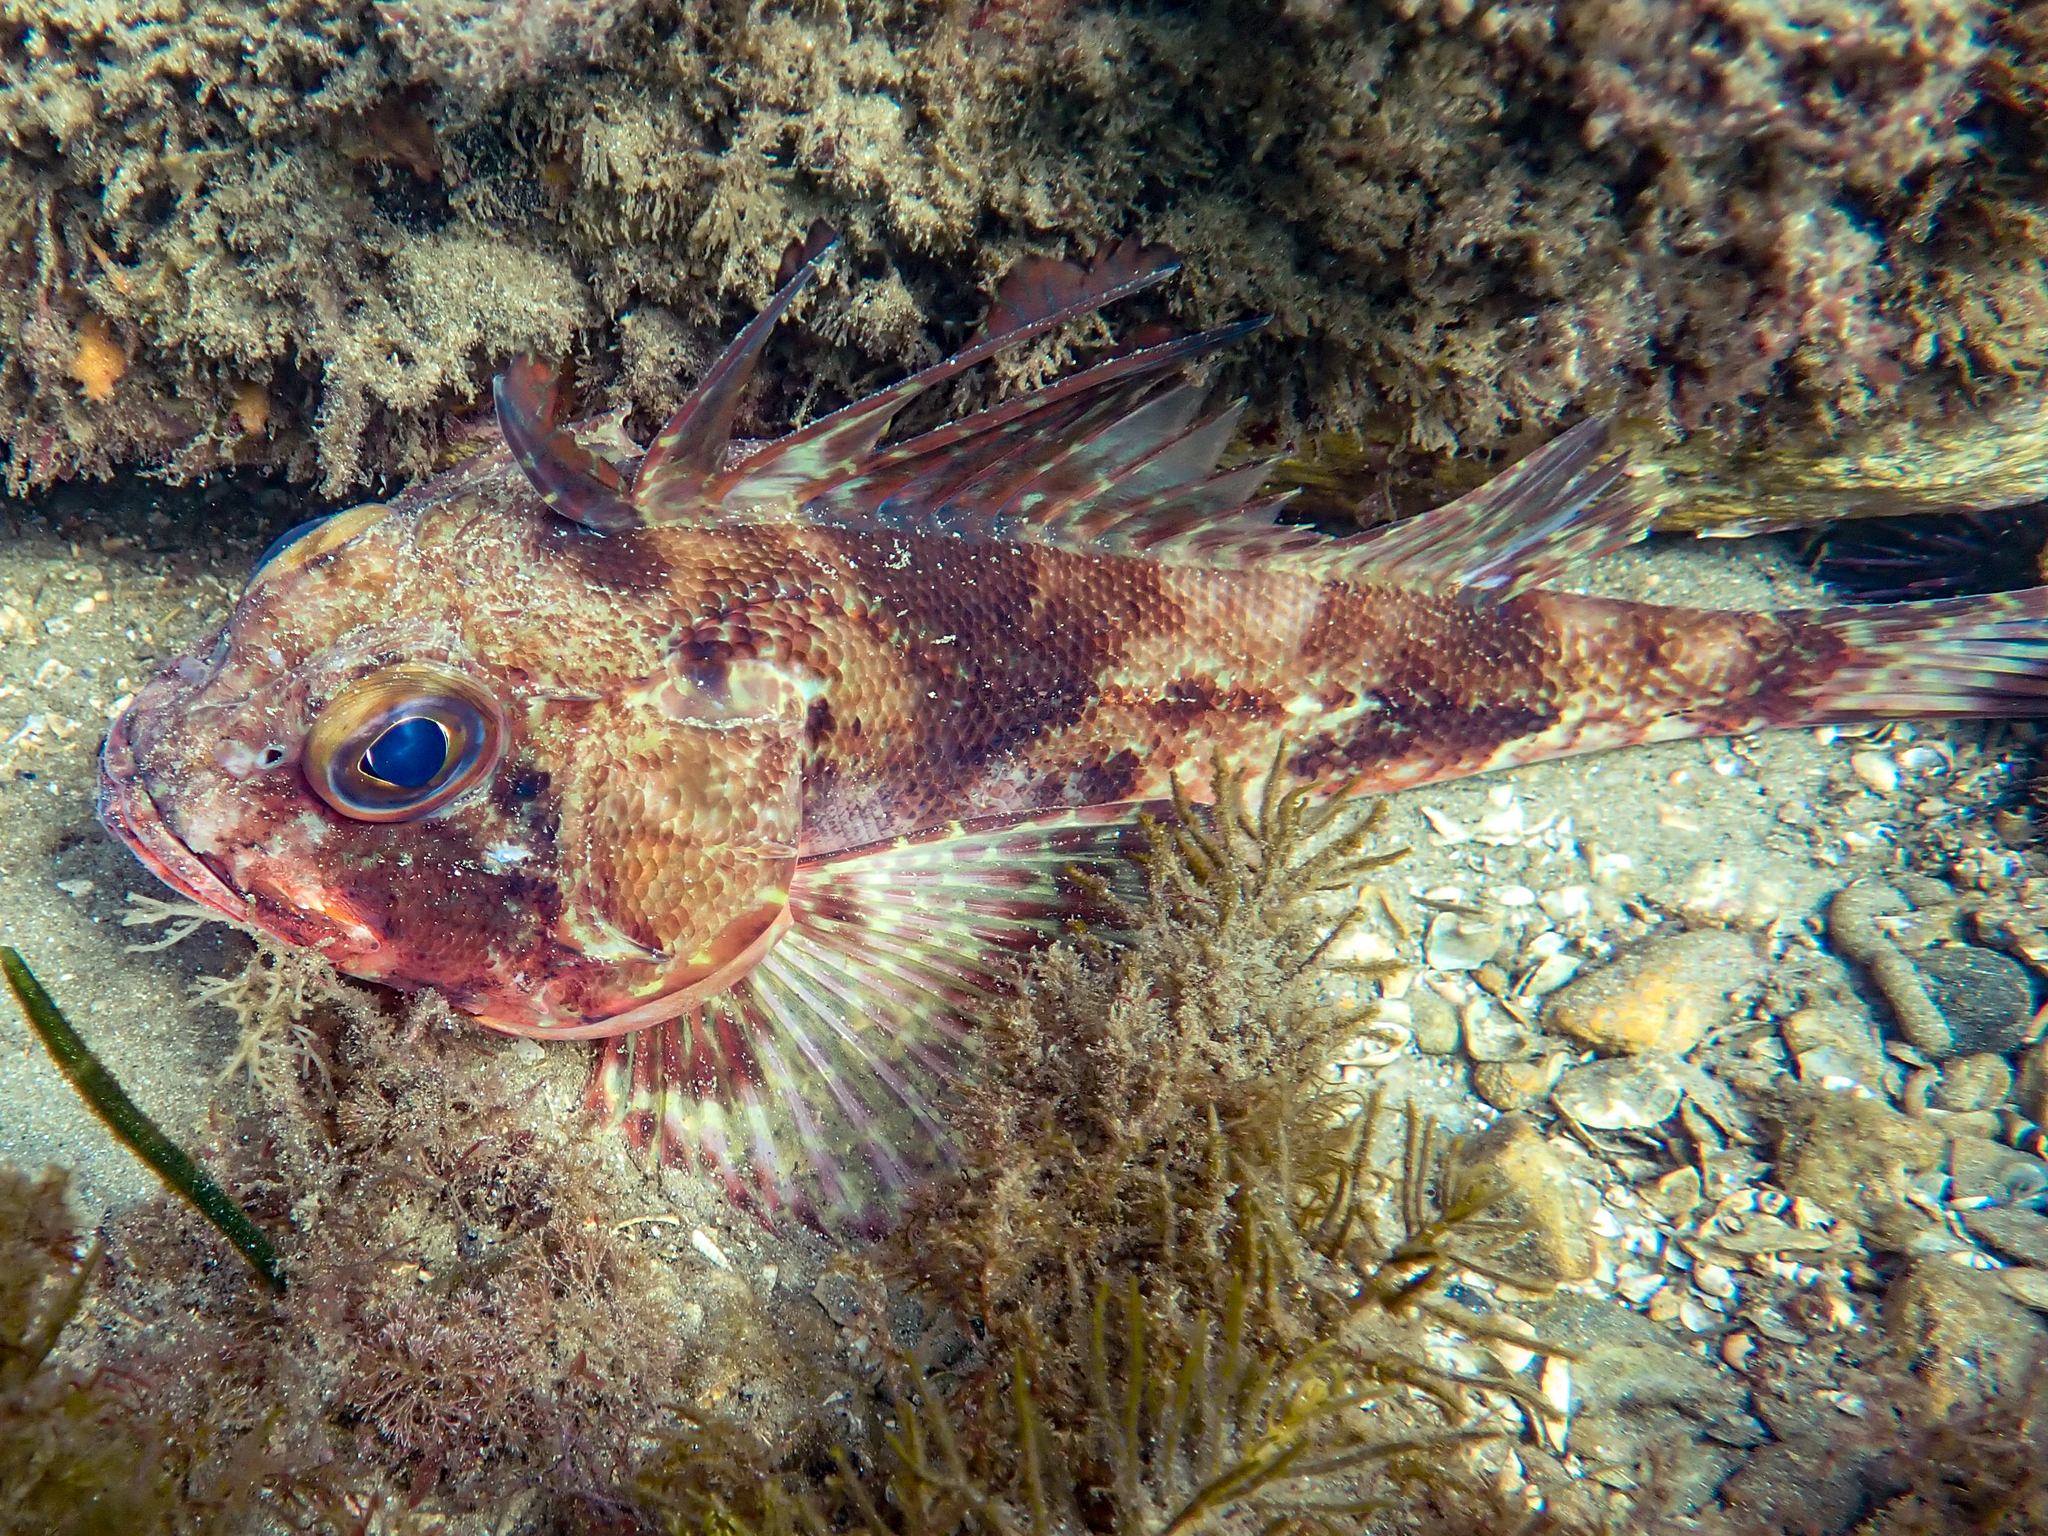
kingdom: Animalia
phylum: Chordata
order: Scorpaeniformes
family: Neosebastidae
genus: Neosebastes
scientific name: Neosebastes scorpaenoides
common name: Cobbler perch
